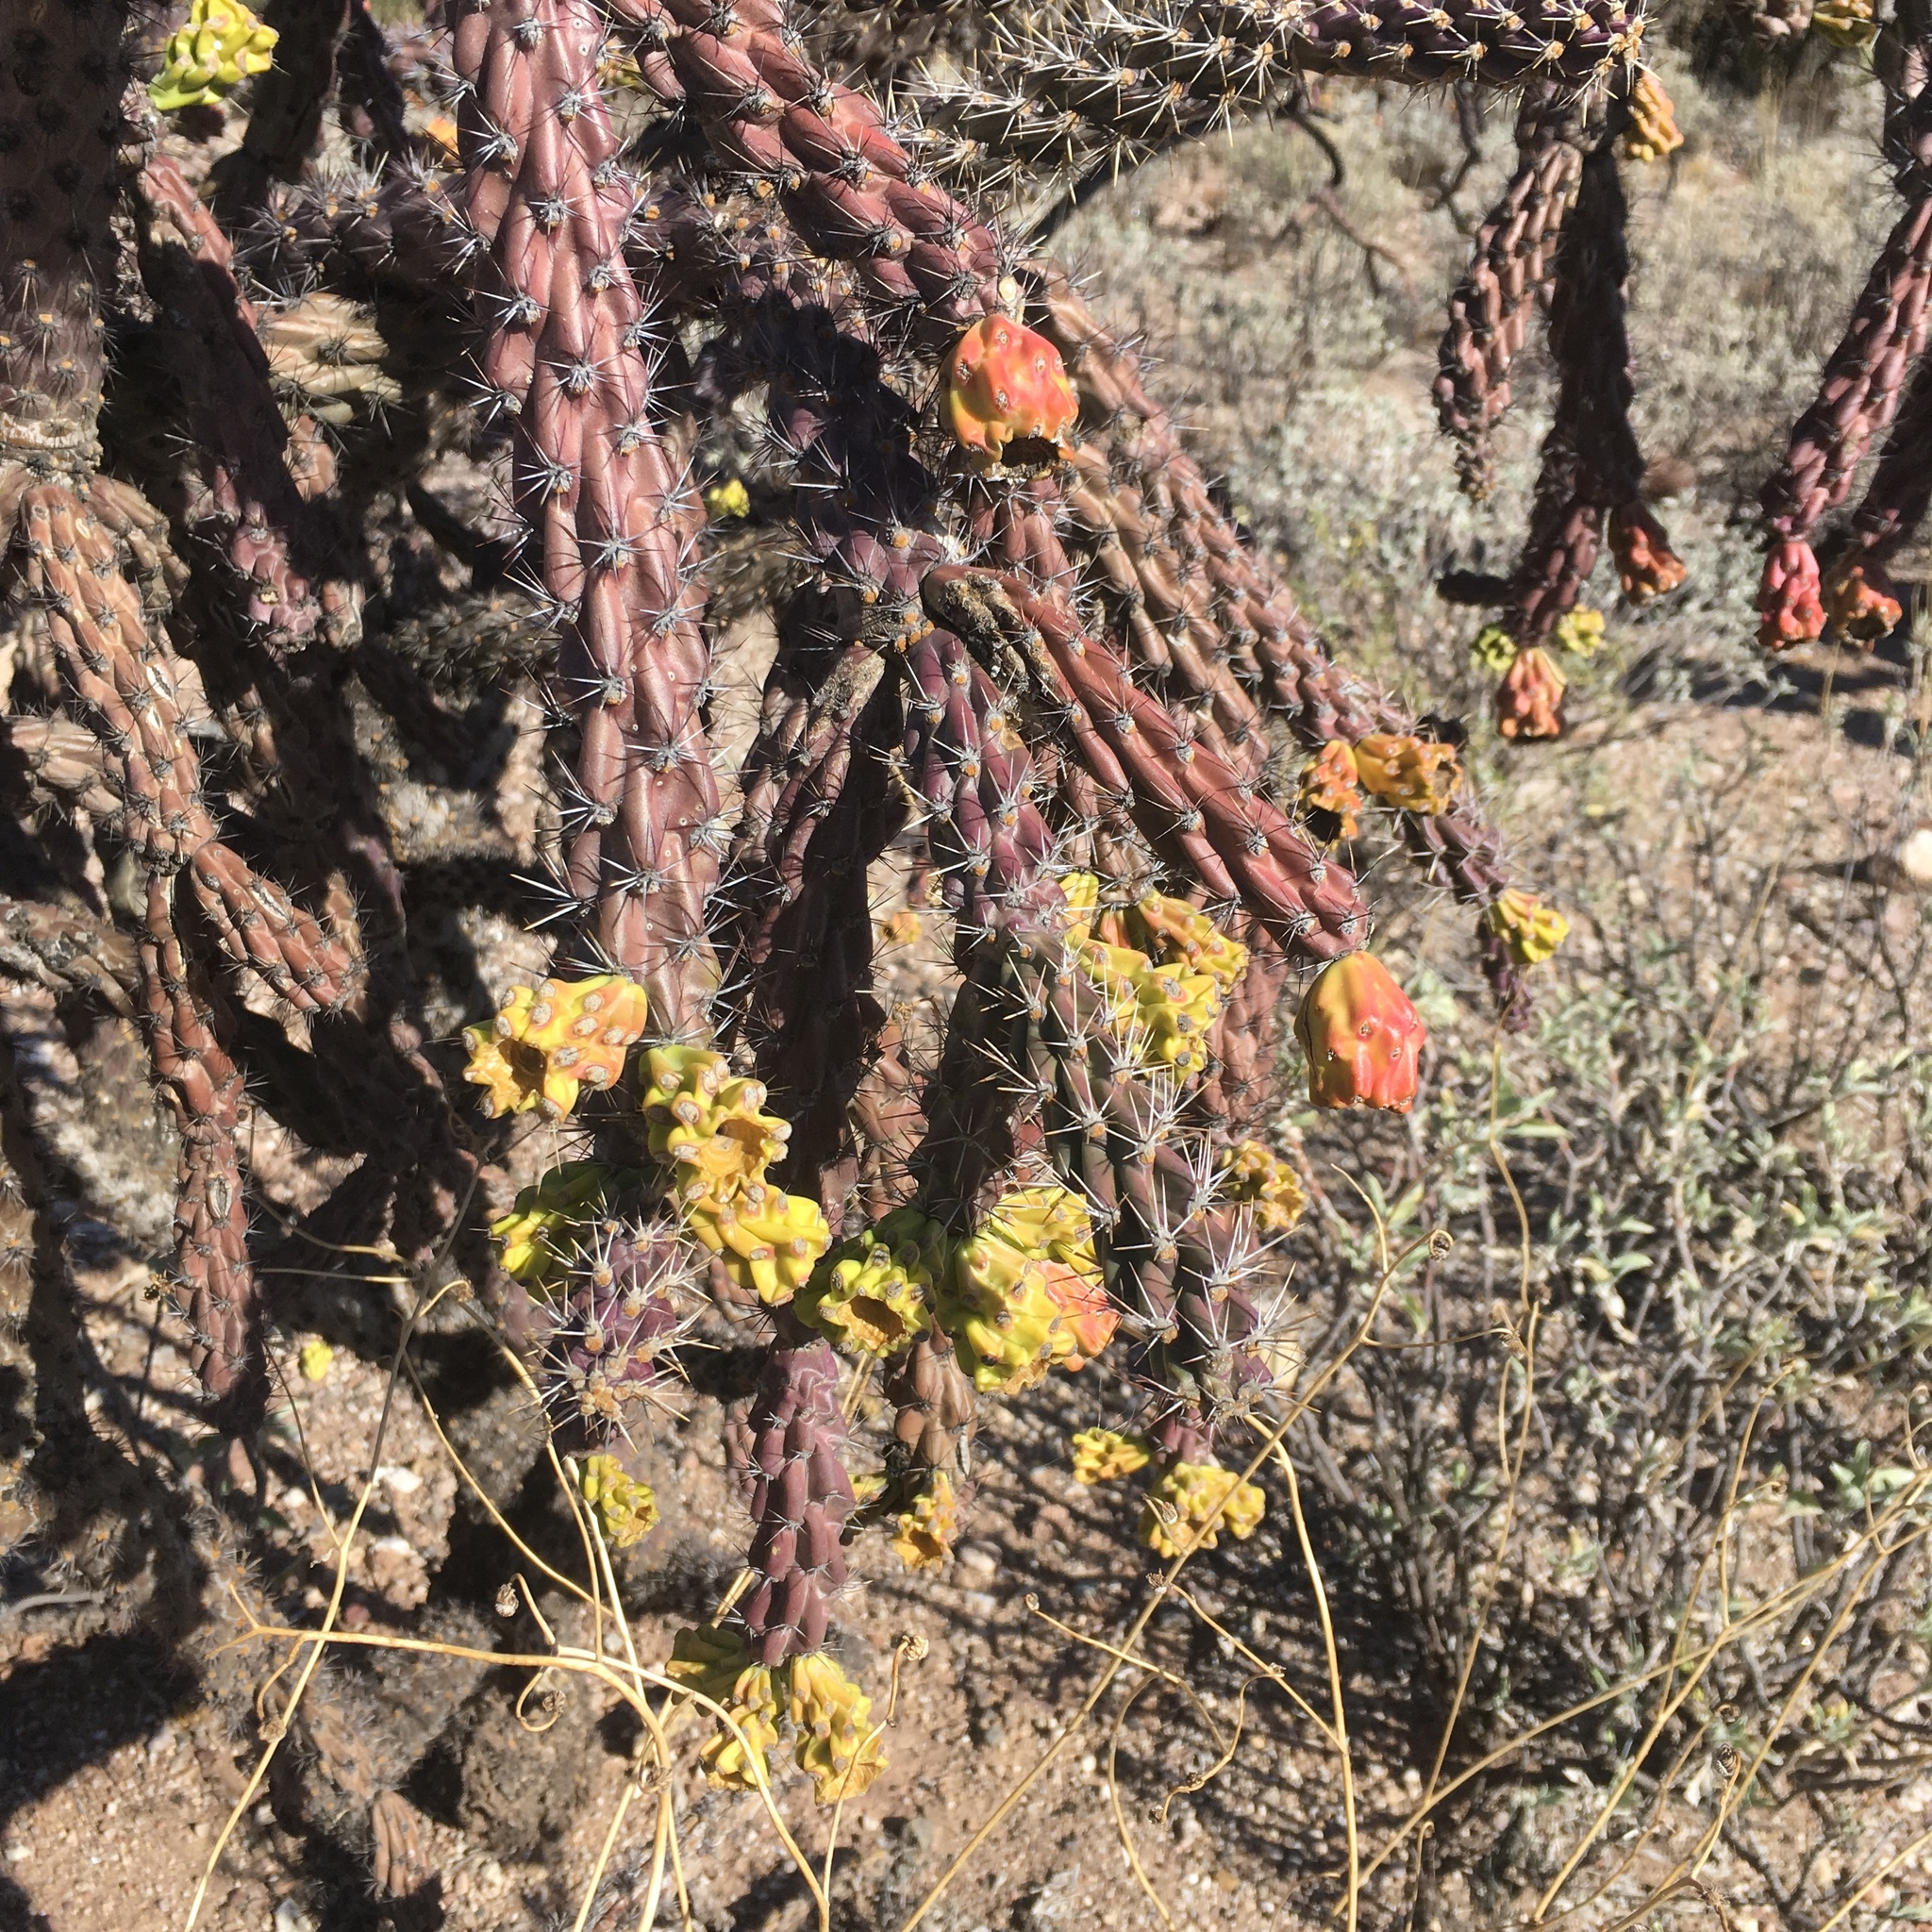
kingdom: Plantae
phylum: Tracheophyta
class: Magnoliopsida
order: Caryophyllales
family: Cactaceae
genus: Cylindropuntia
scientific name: Cylindropuntia thurberi
